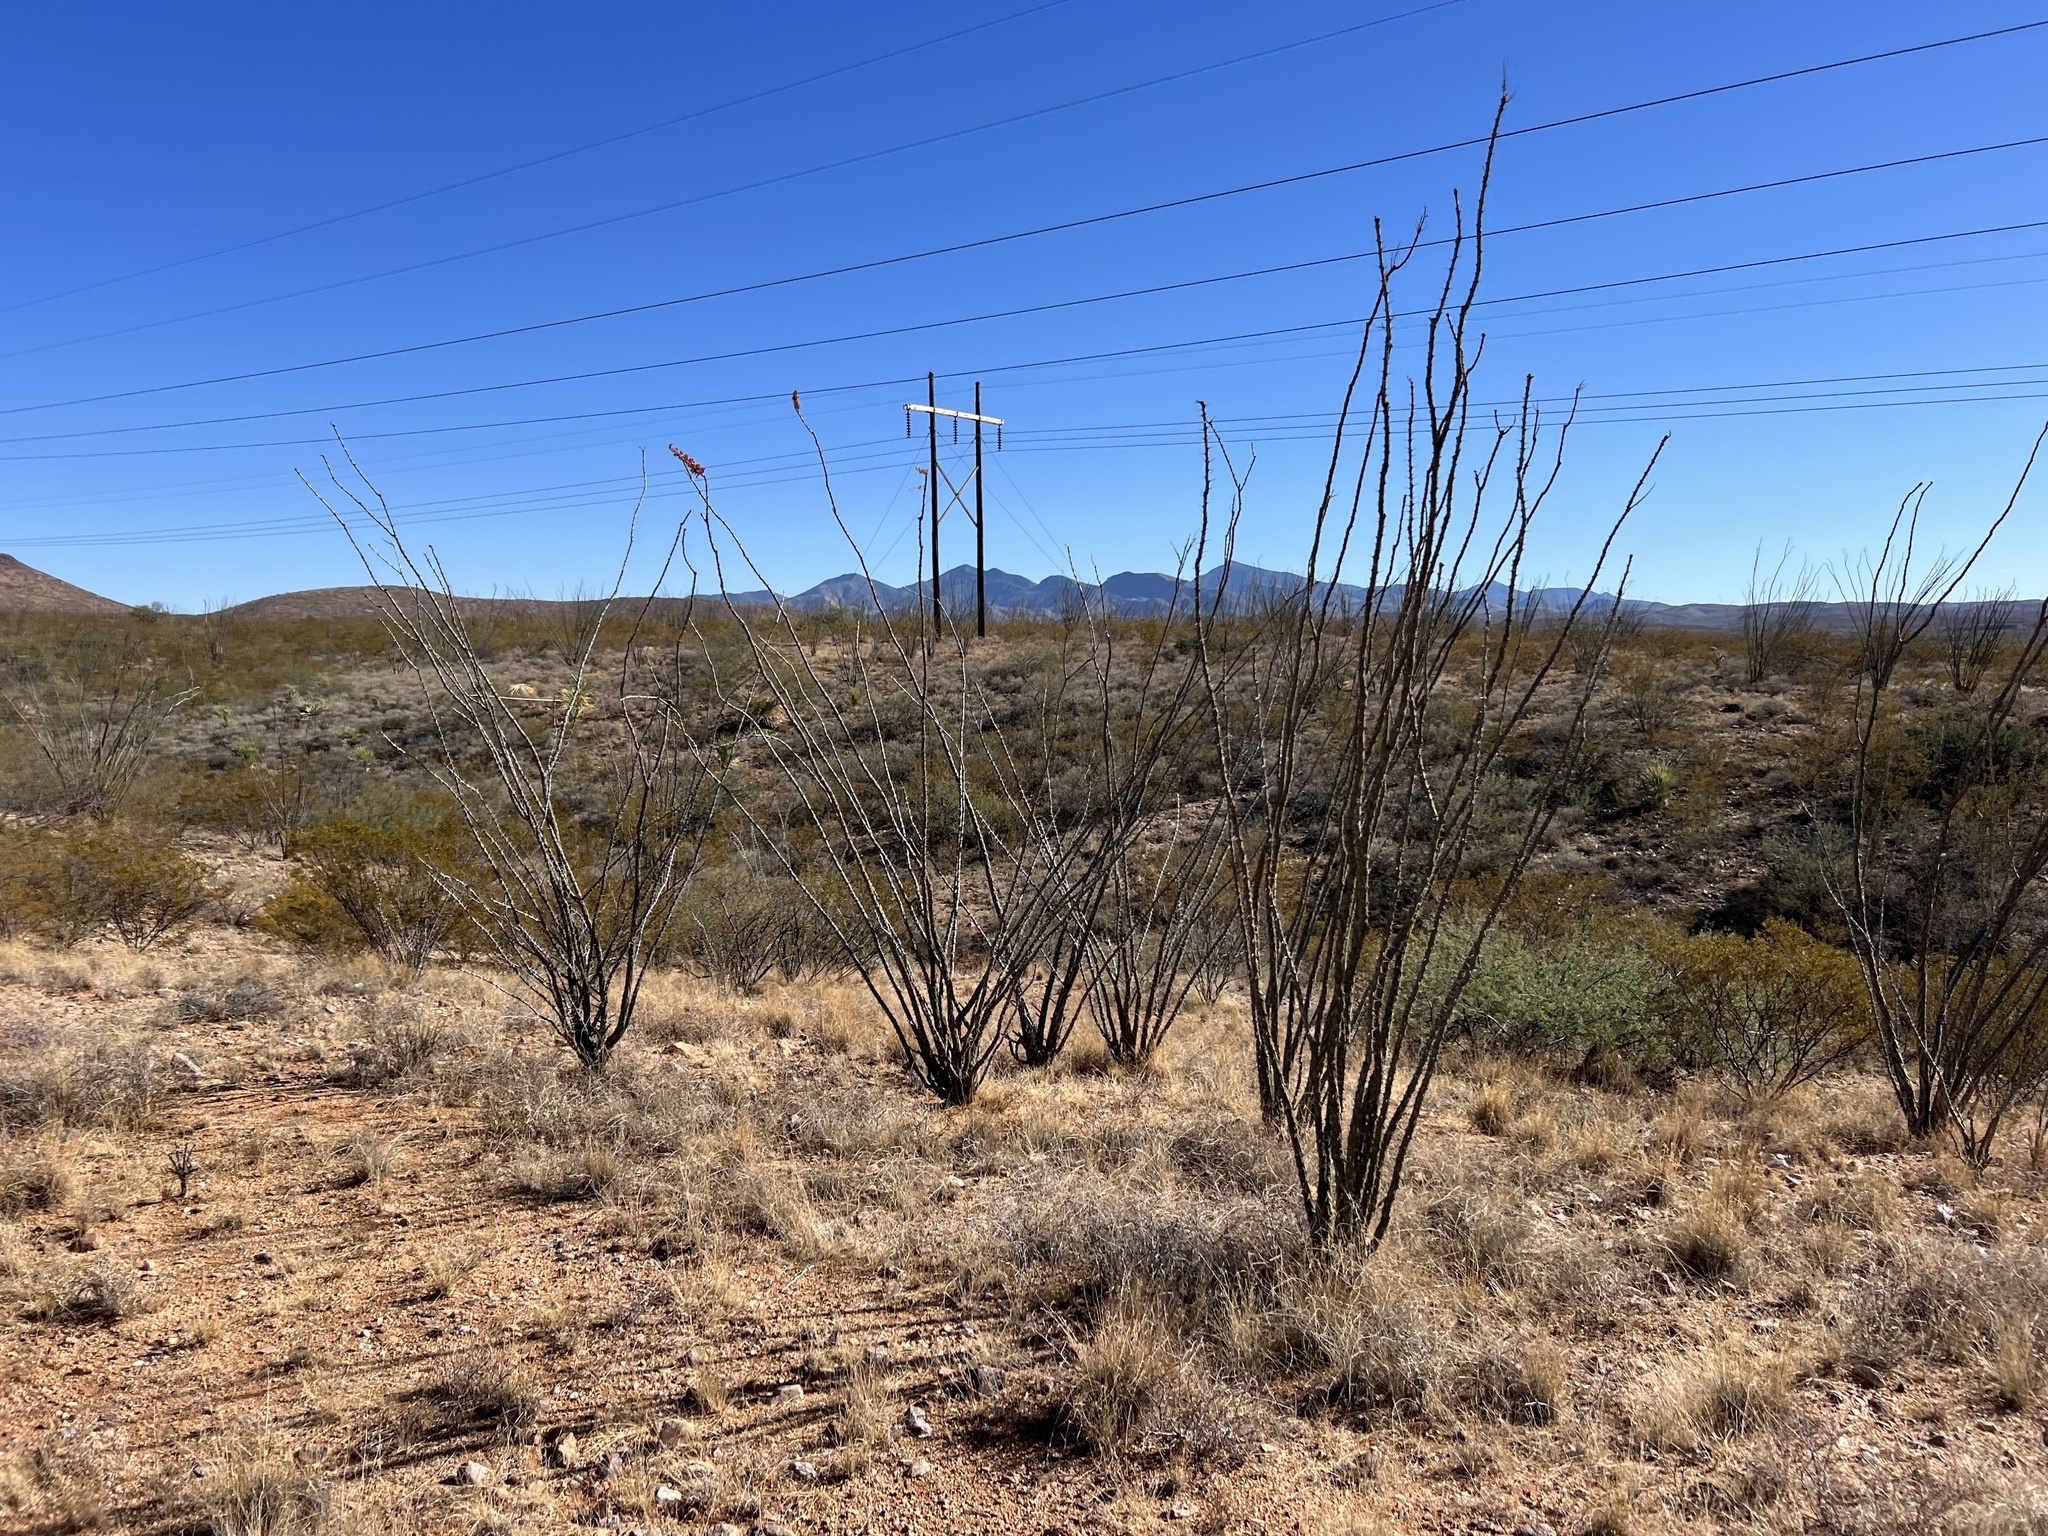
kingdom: Plantae
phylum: Tracheophyta
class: Magnoliopsida
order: Ericales
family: Fouquieriaceae
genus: Fouquieria
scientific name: Fouquieria splendens
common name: Vine-cactus
